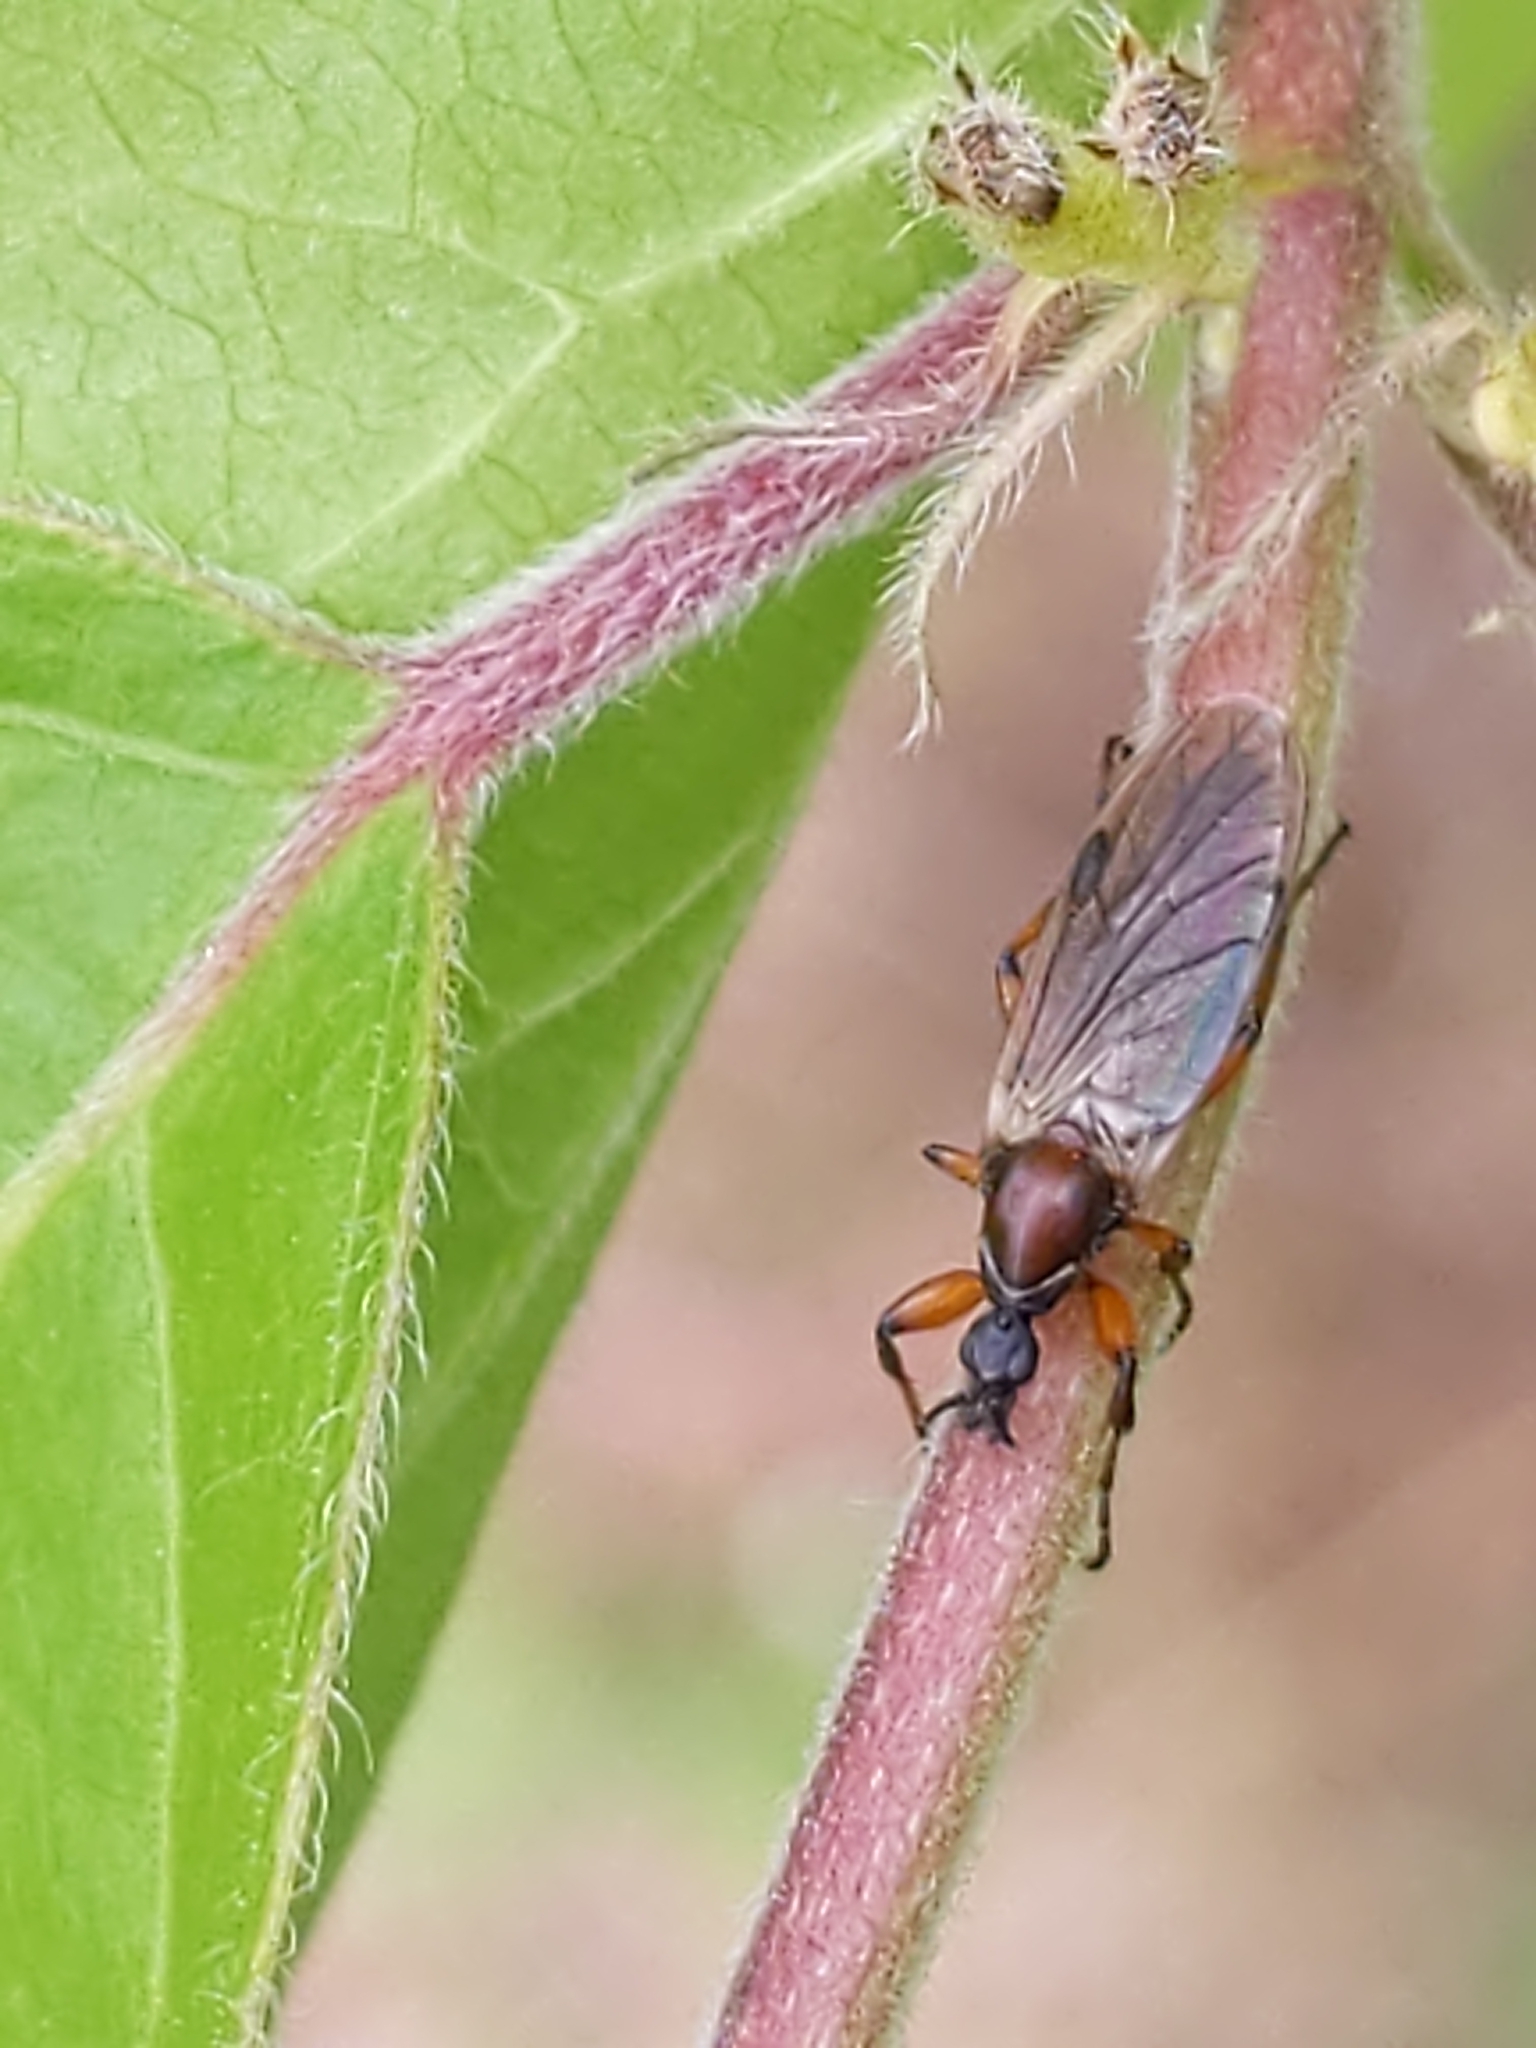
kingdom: Animalia
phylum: Arthropoda
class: Insecta
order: Diptera
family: Bibionidae
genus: Bibio
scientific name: Bibio articulatus
